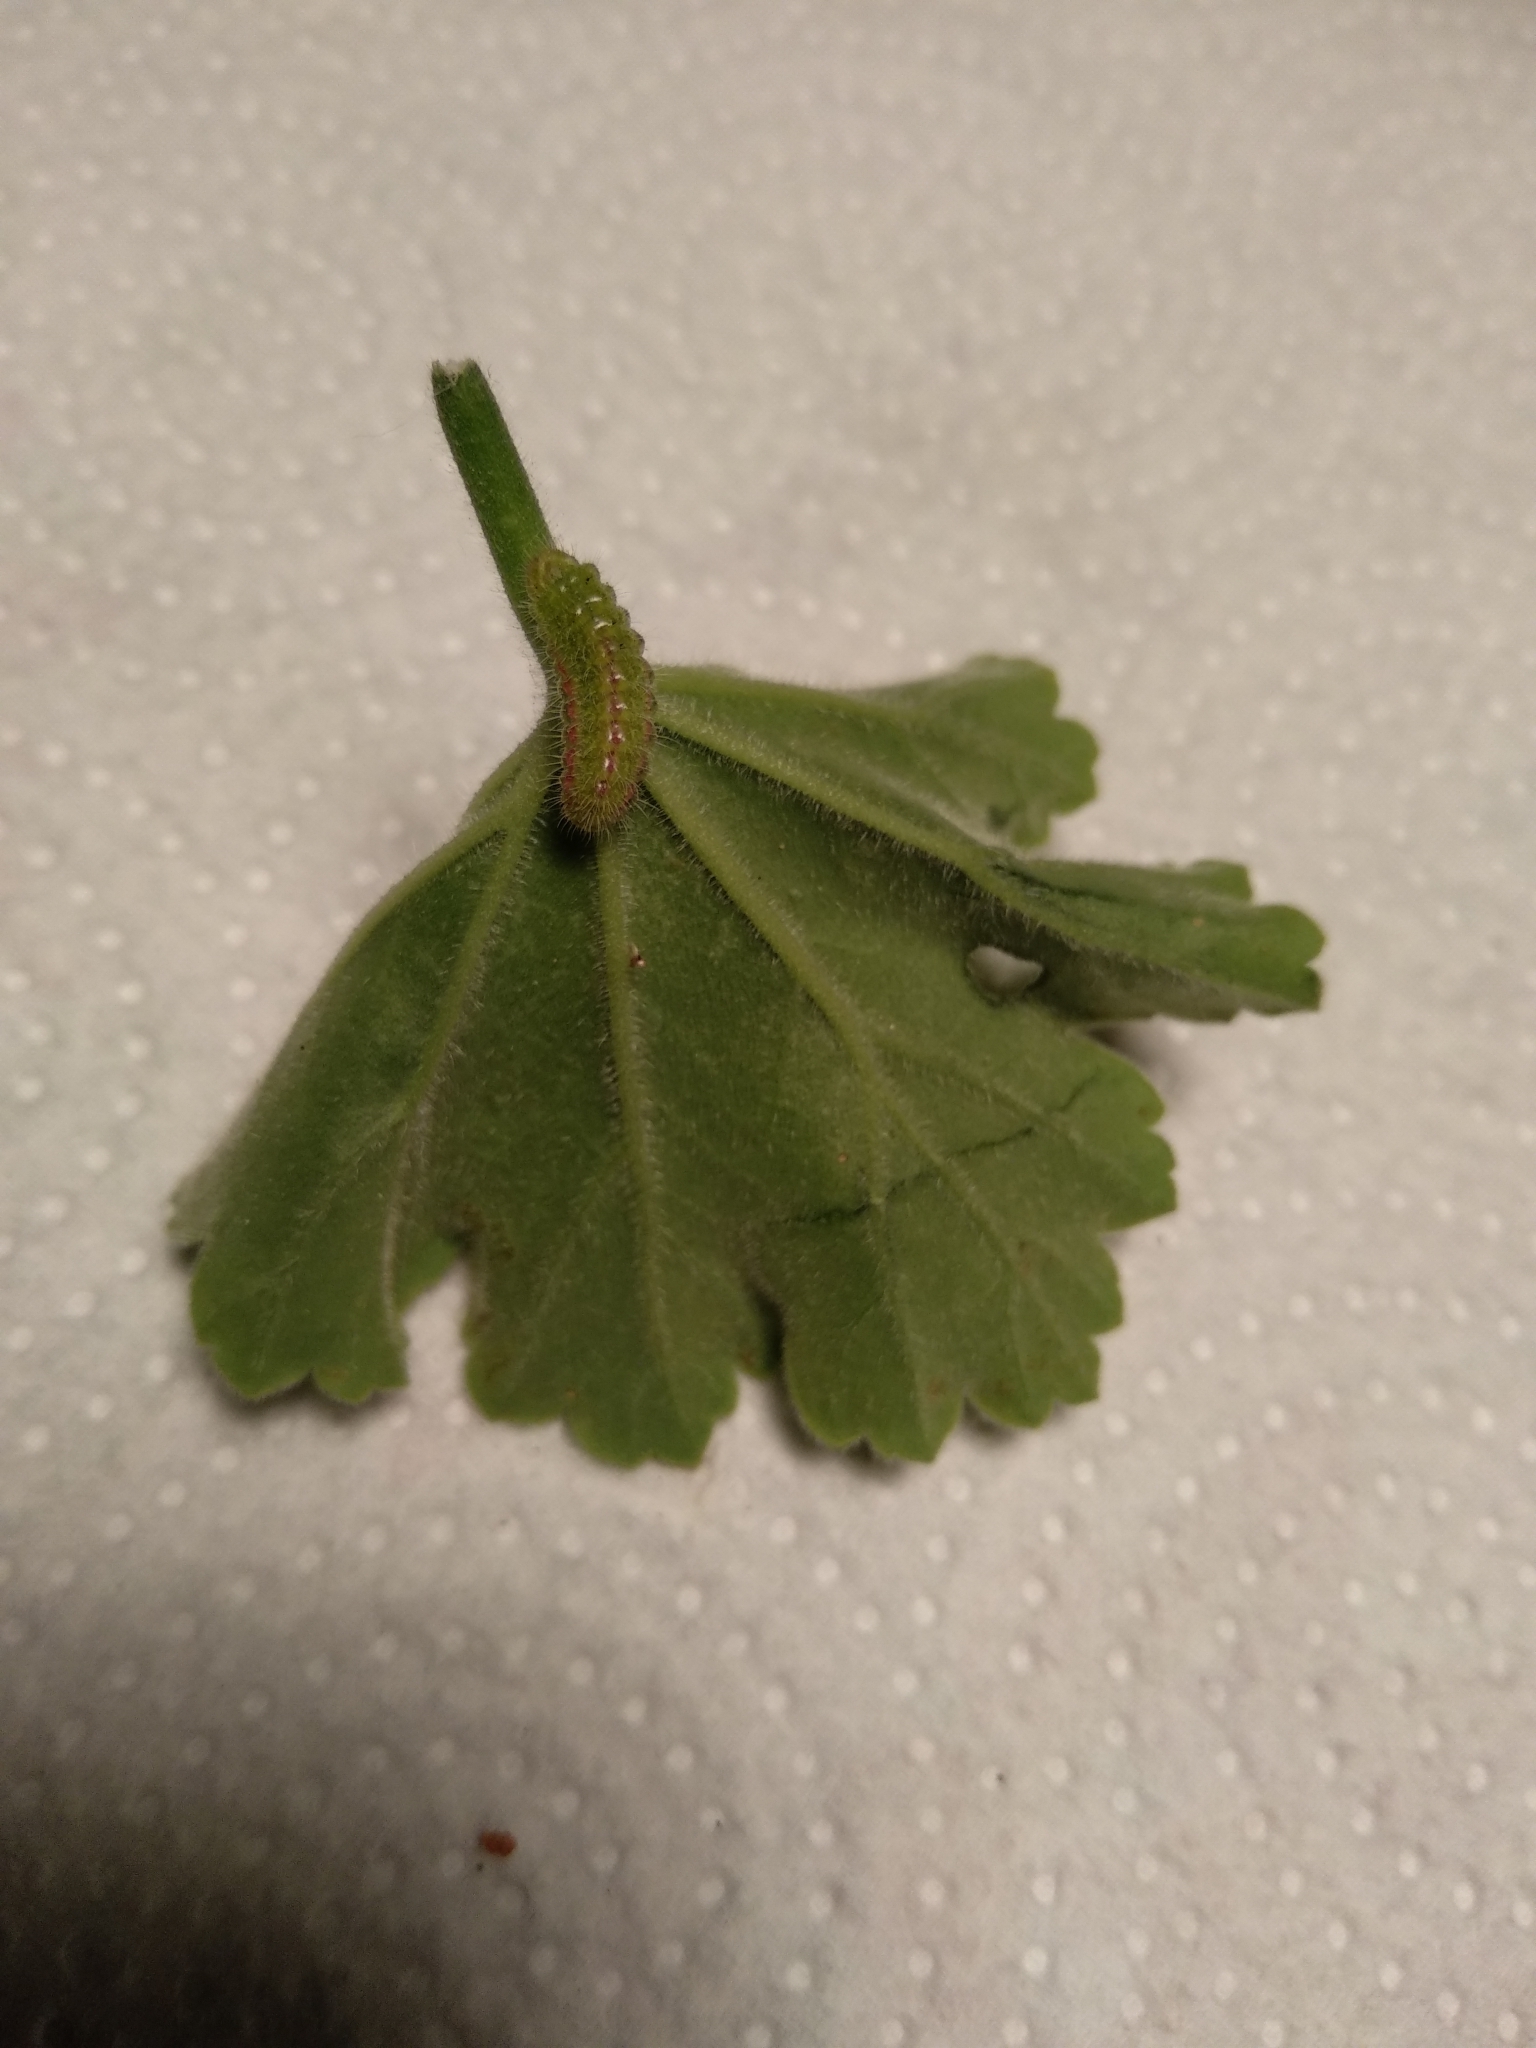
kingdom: Animalia
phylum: Arthropoda
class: Insecta
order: Lepidoptera
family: Lycaenidae
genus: Cacyreus
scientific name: Cacyreus marshalli
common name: Geranium bronze
